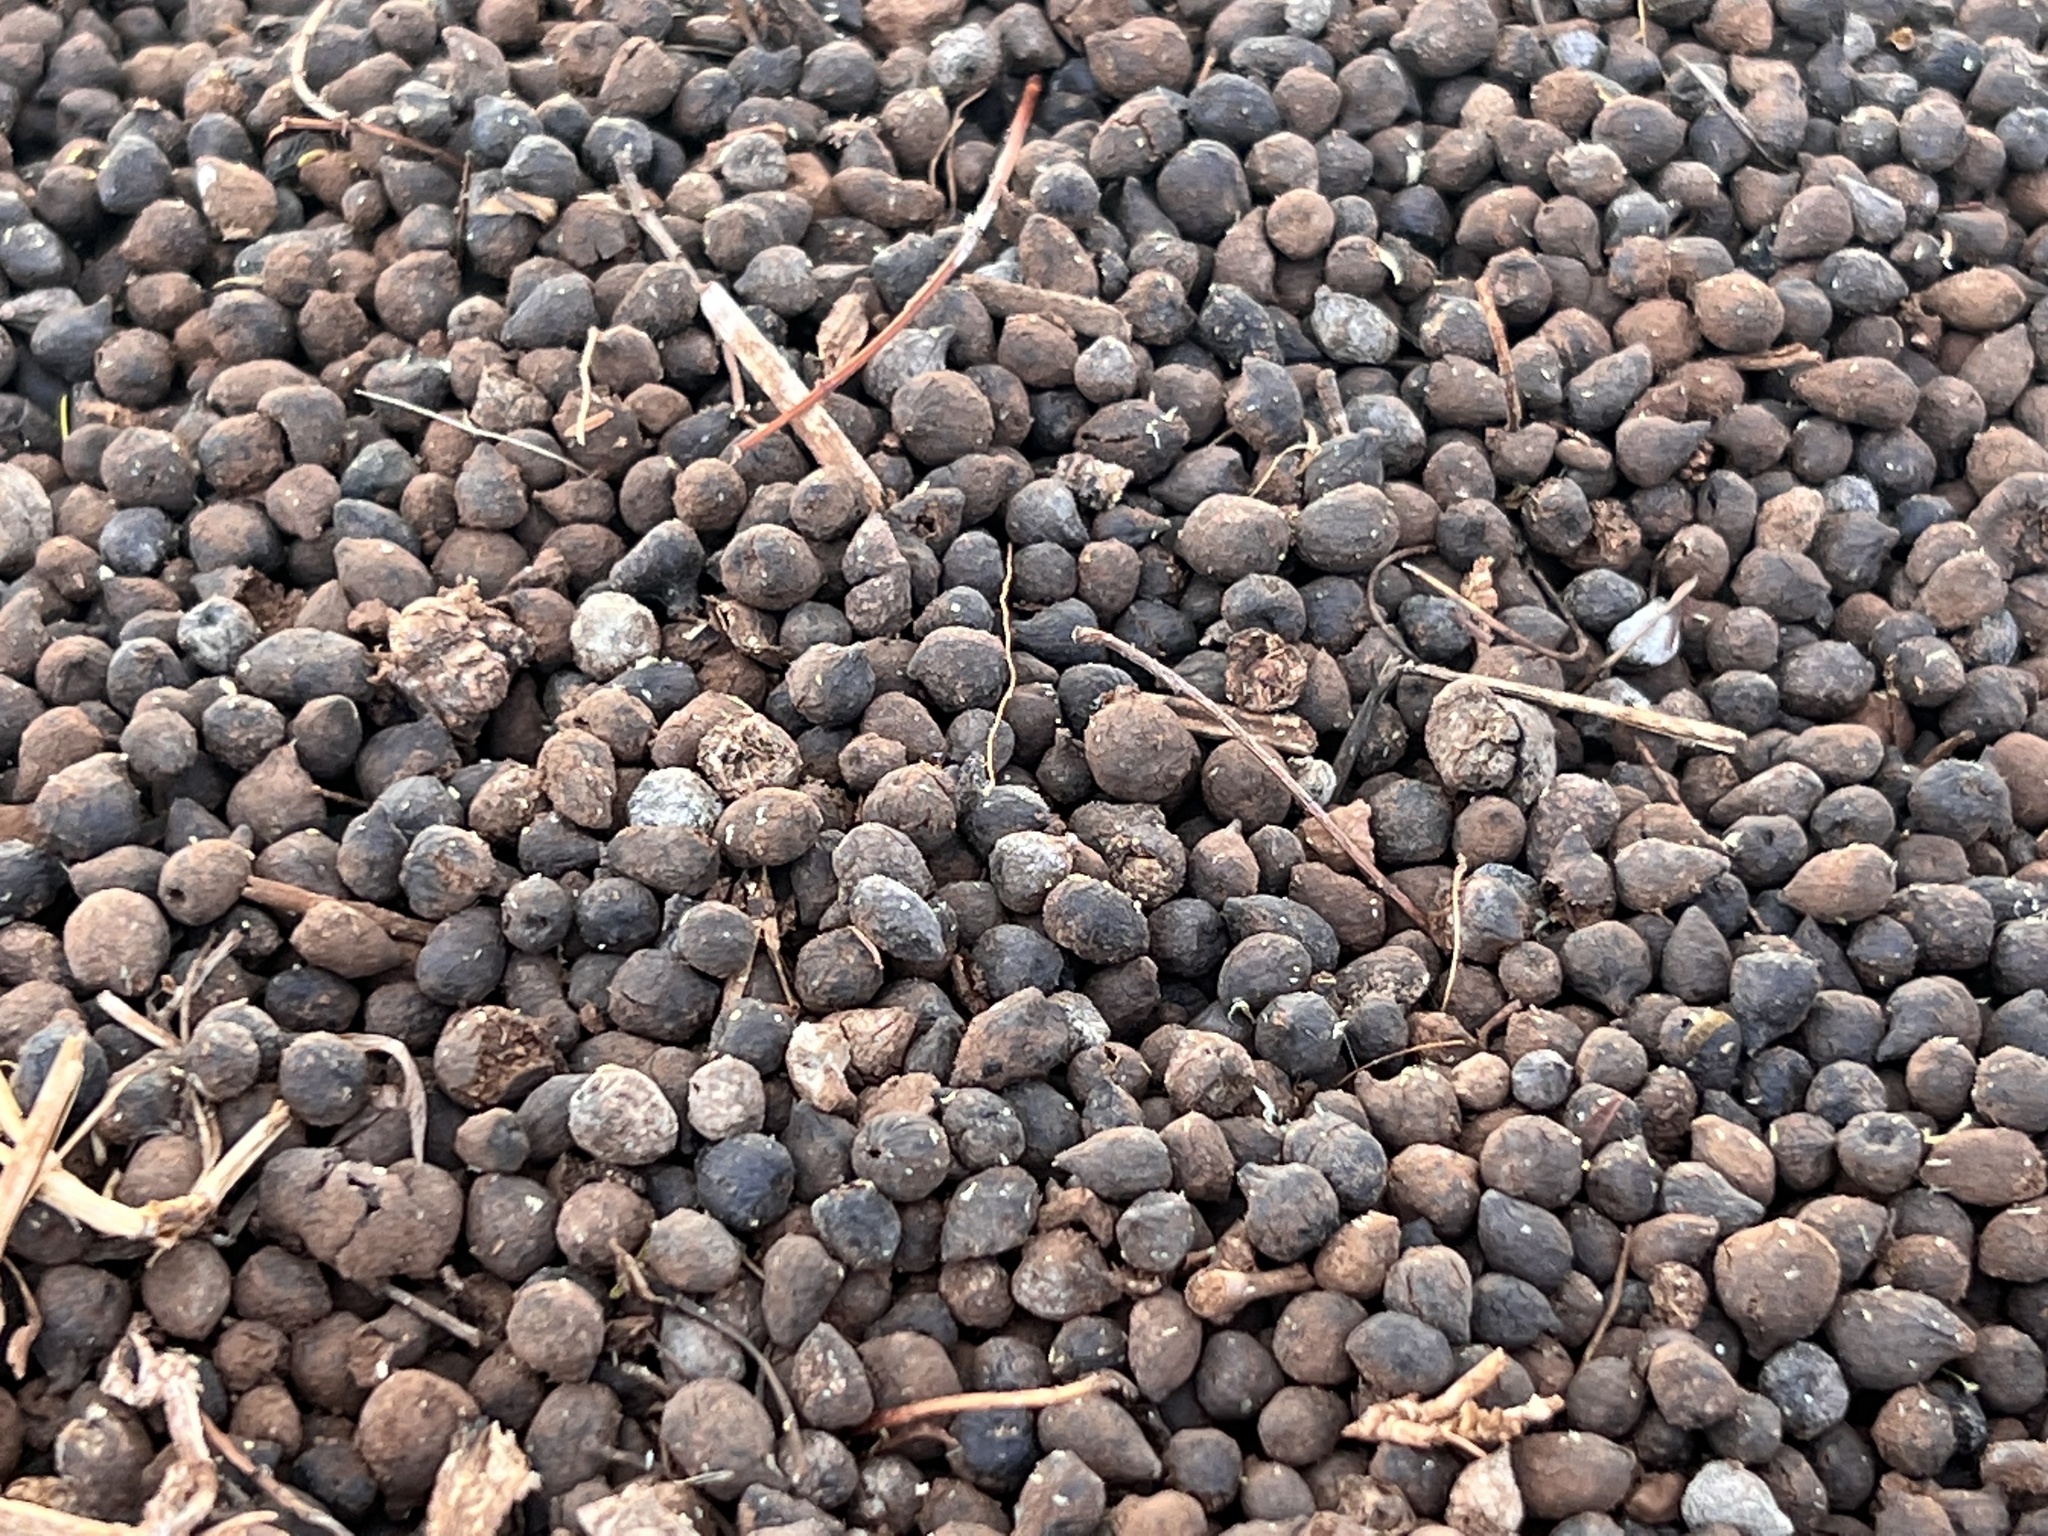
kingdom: Animalia
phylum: Chordata
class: Mammalia
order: Artiodactyla
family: Bovidae
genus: Madoqua
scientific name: Madoqua
